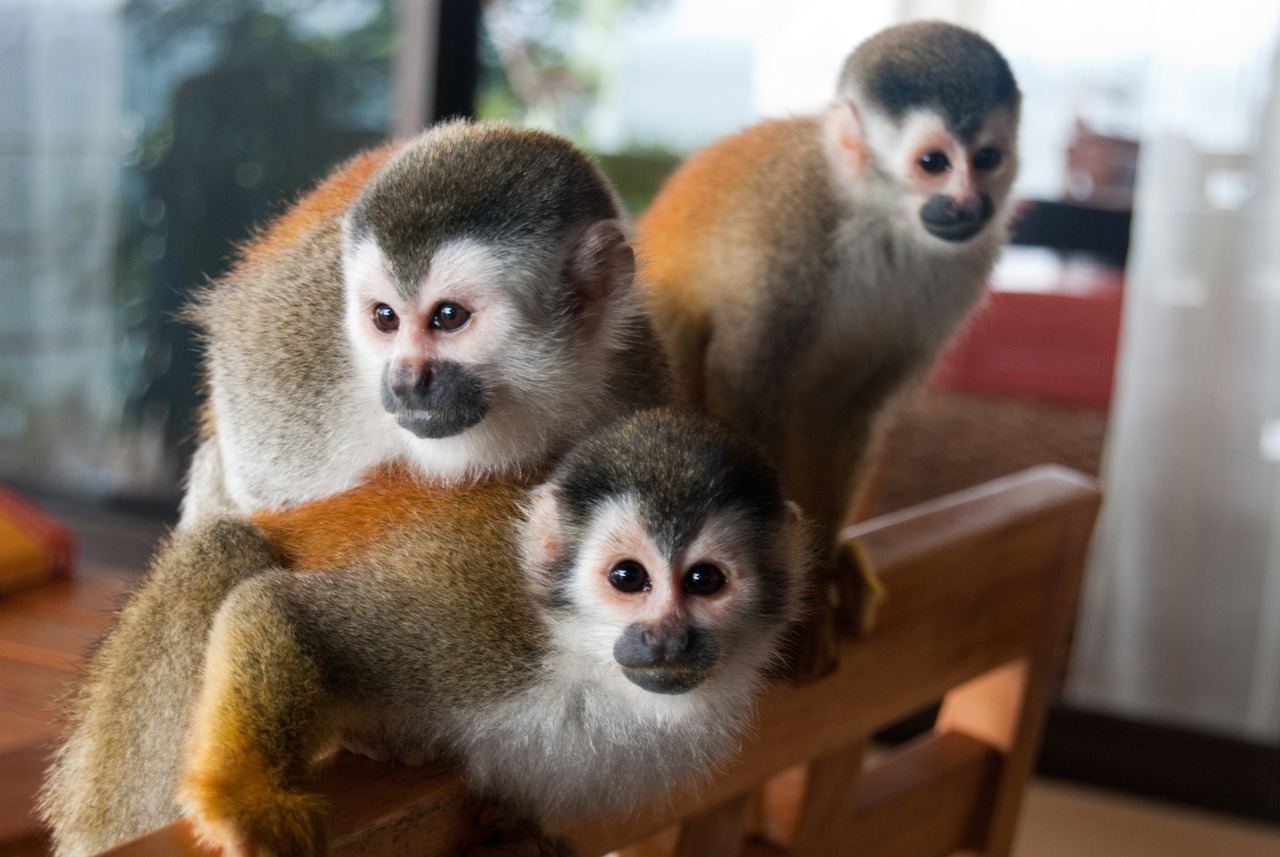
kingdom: Animalia
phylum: Chordata
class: Mammalia
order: Primates
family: Cebidae
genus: Saimiri
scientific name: Saimiri oerstedii
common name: Central american squirrel monkey
